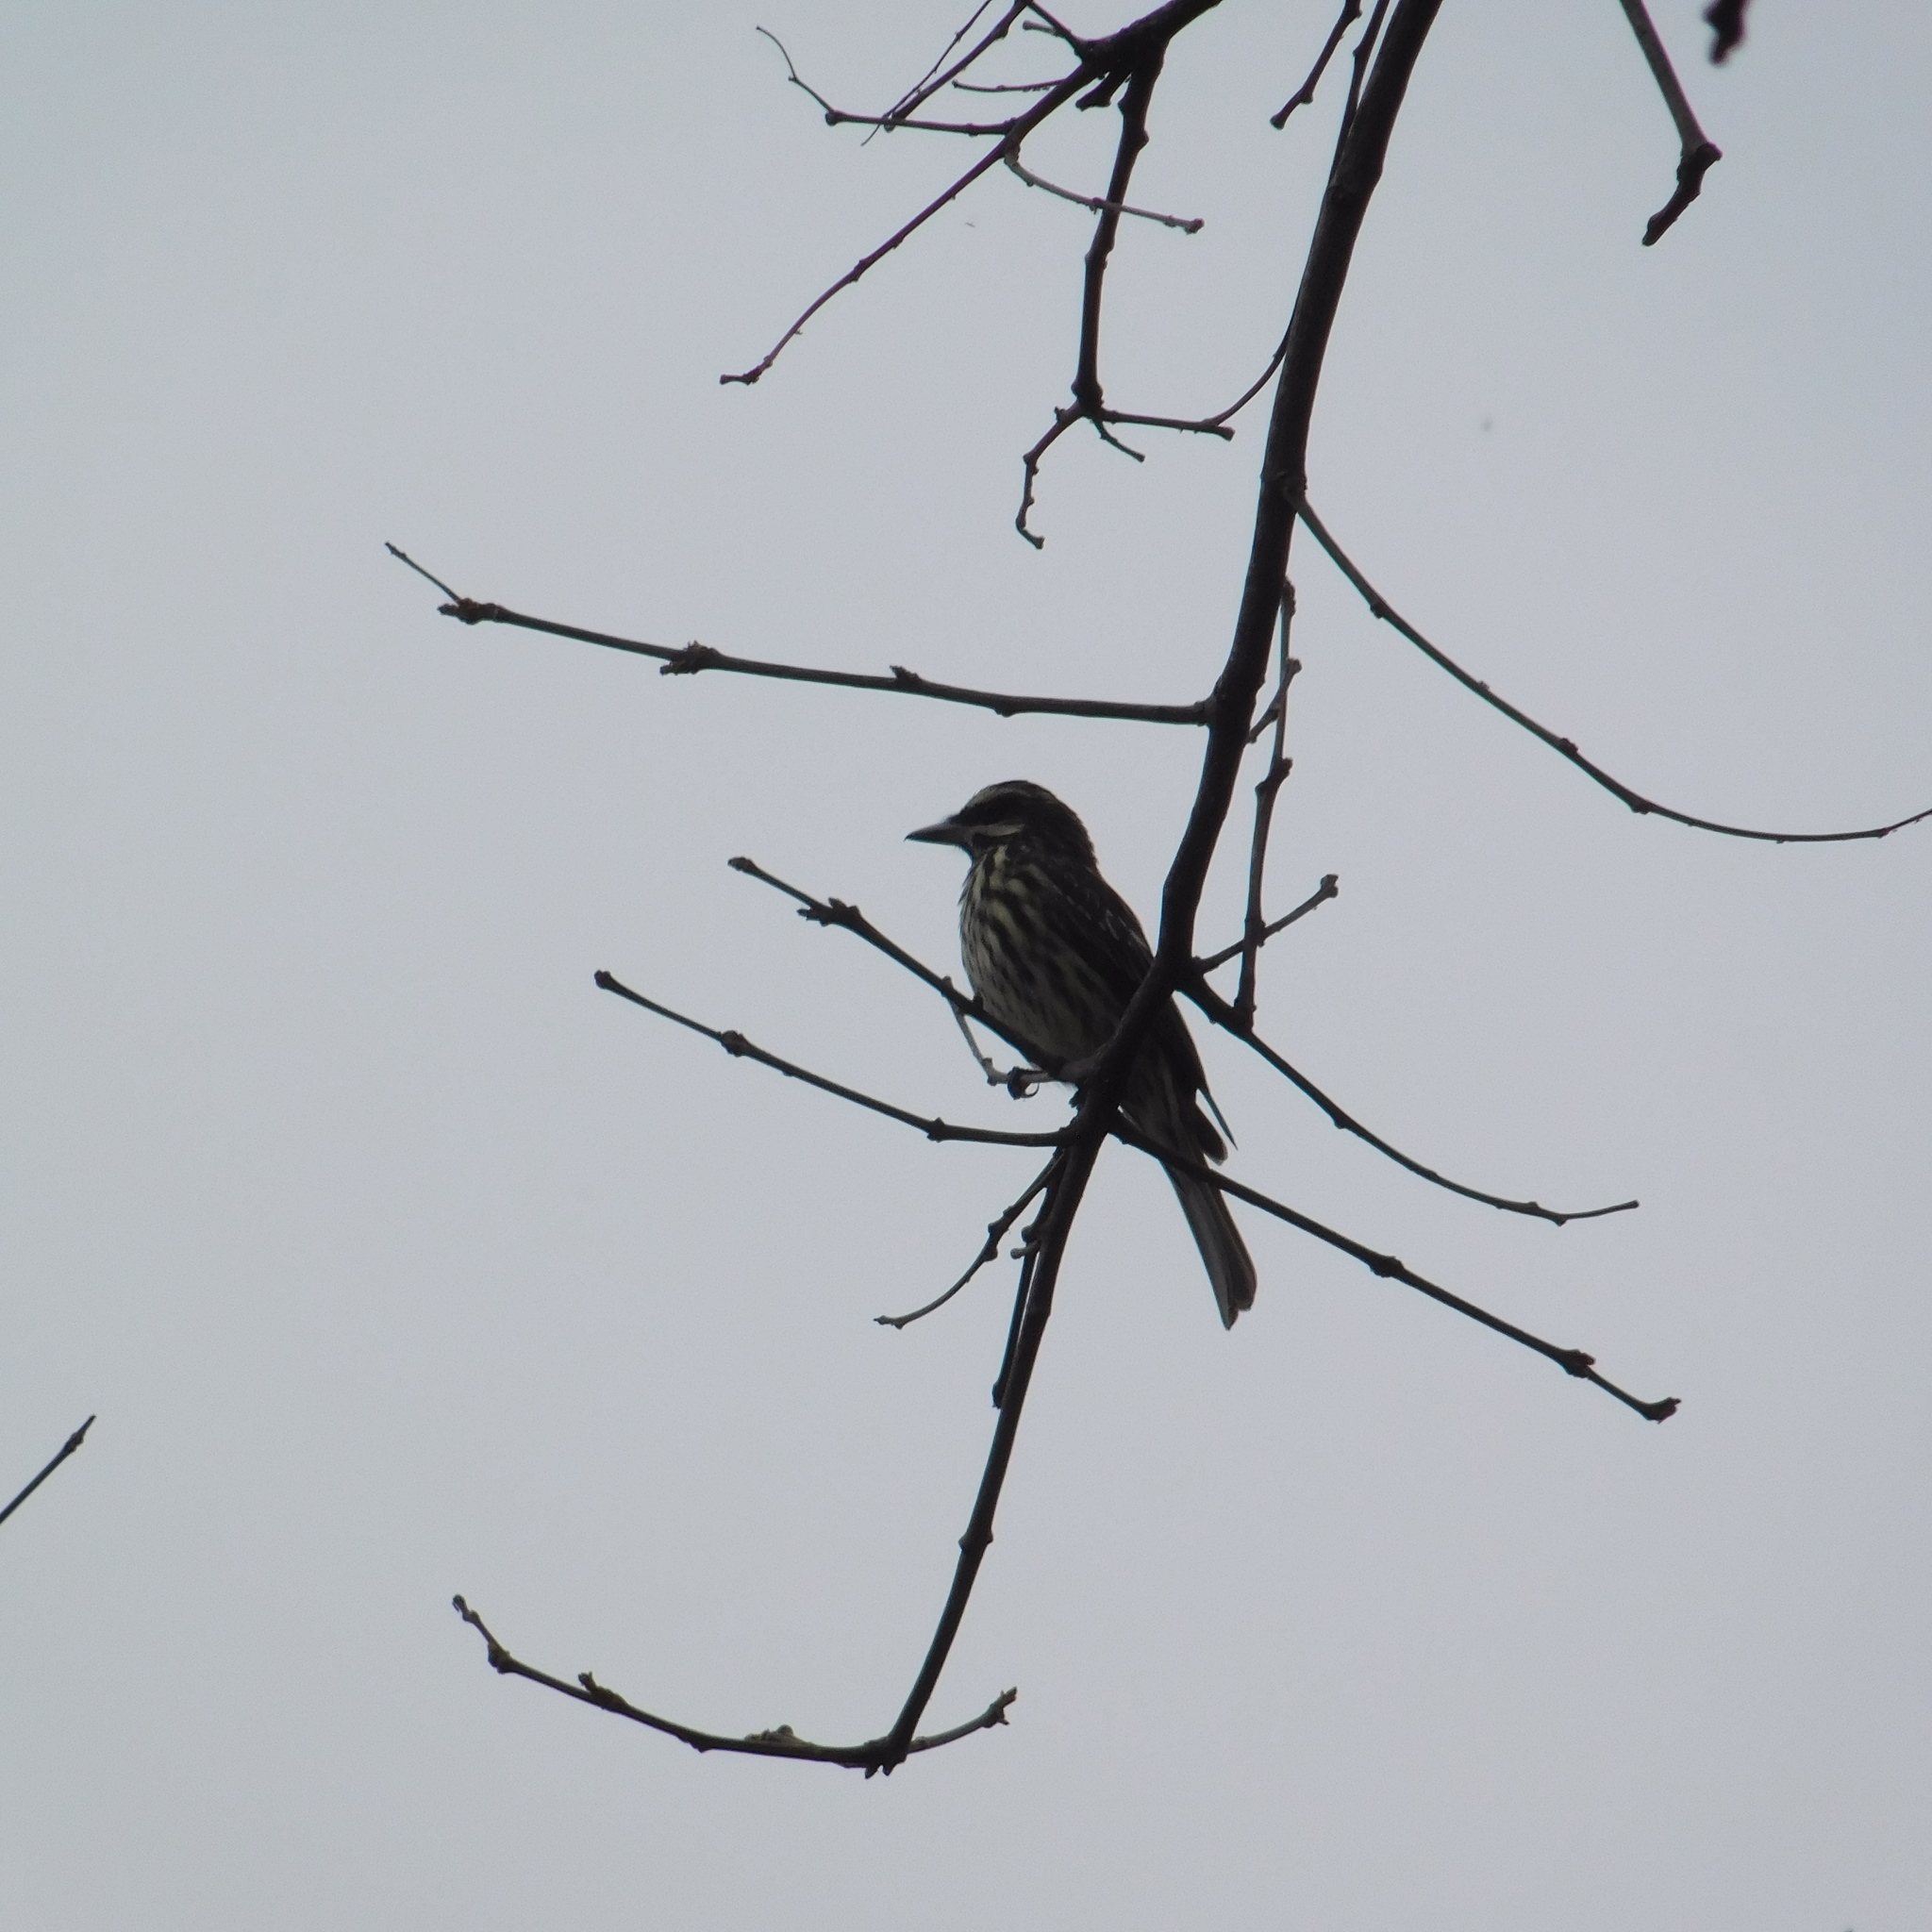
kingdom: Animalia
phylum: Chordata
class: Aves
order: Passeriformes
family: Tyrannidae
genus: Myiodynastes
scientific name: Myiodynastes maculatus
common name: Streaked flycatcher
